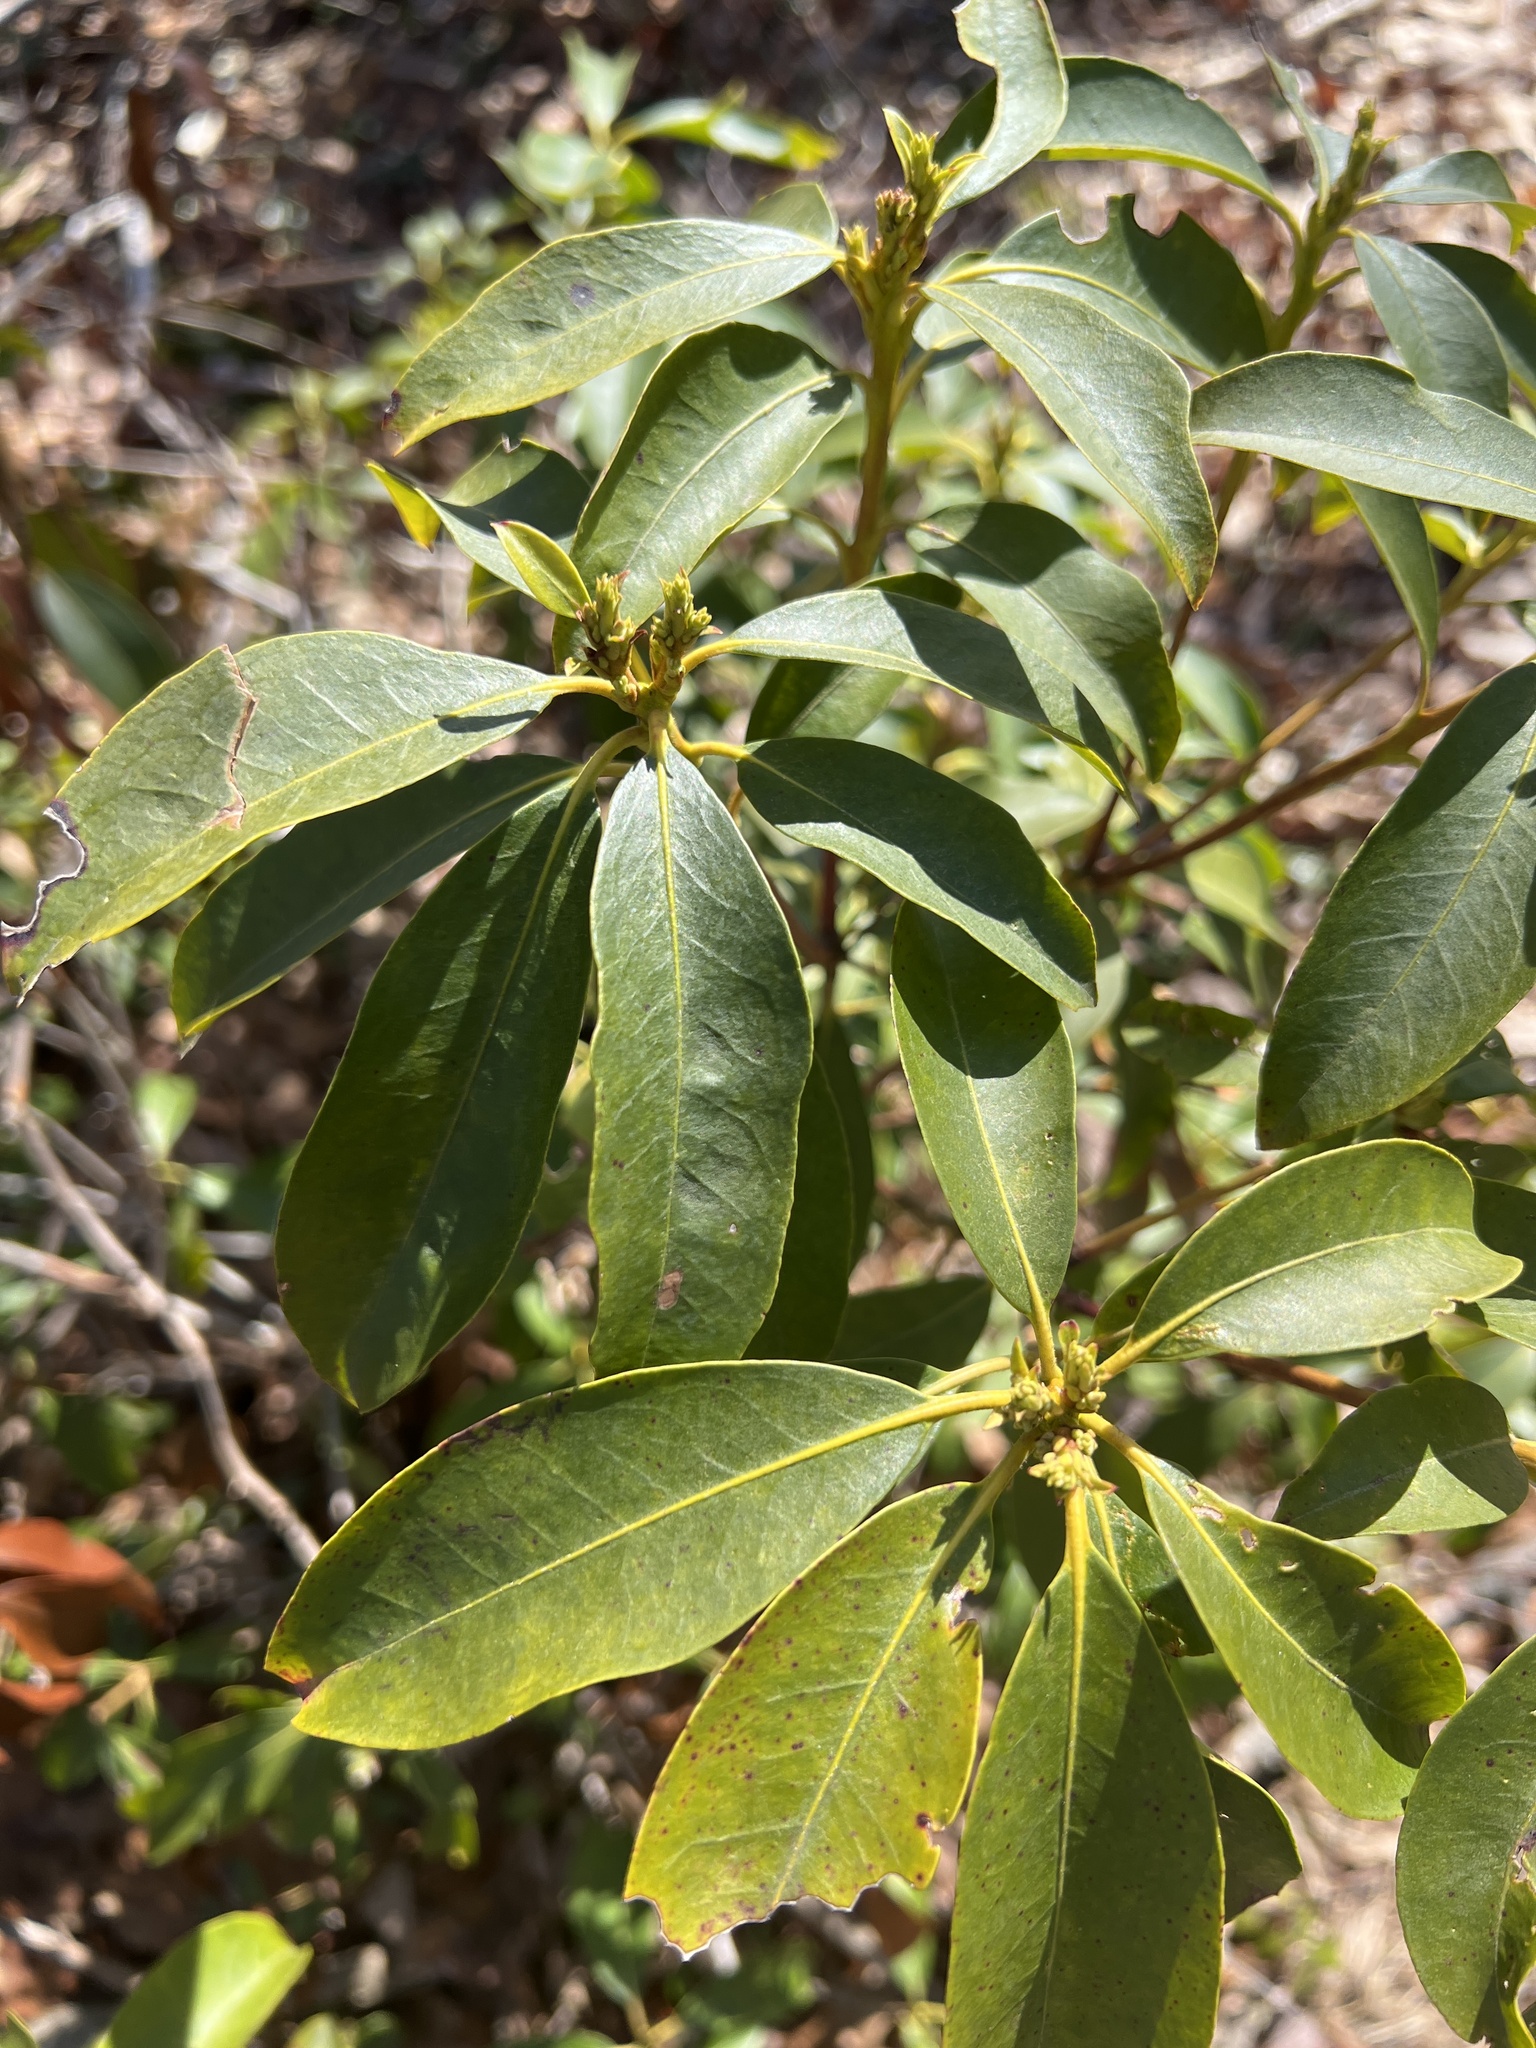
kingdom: Plantae
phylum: Tracheophyta
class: Magnoliopsida
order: Ericales
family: Ericaceae
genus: Kalmia
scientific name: Kalmia latifolia
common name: Mountain-laurel
